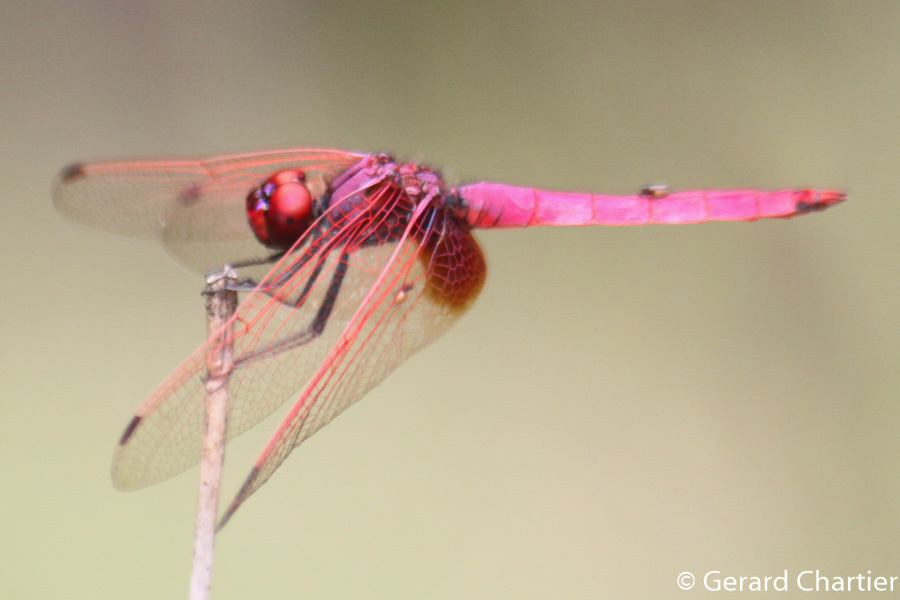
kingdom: Animalia
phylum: Arthropoda
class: Insecta
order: Odonata
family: Libellulidae
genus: Trithemis
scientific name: Trithemis aurora
